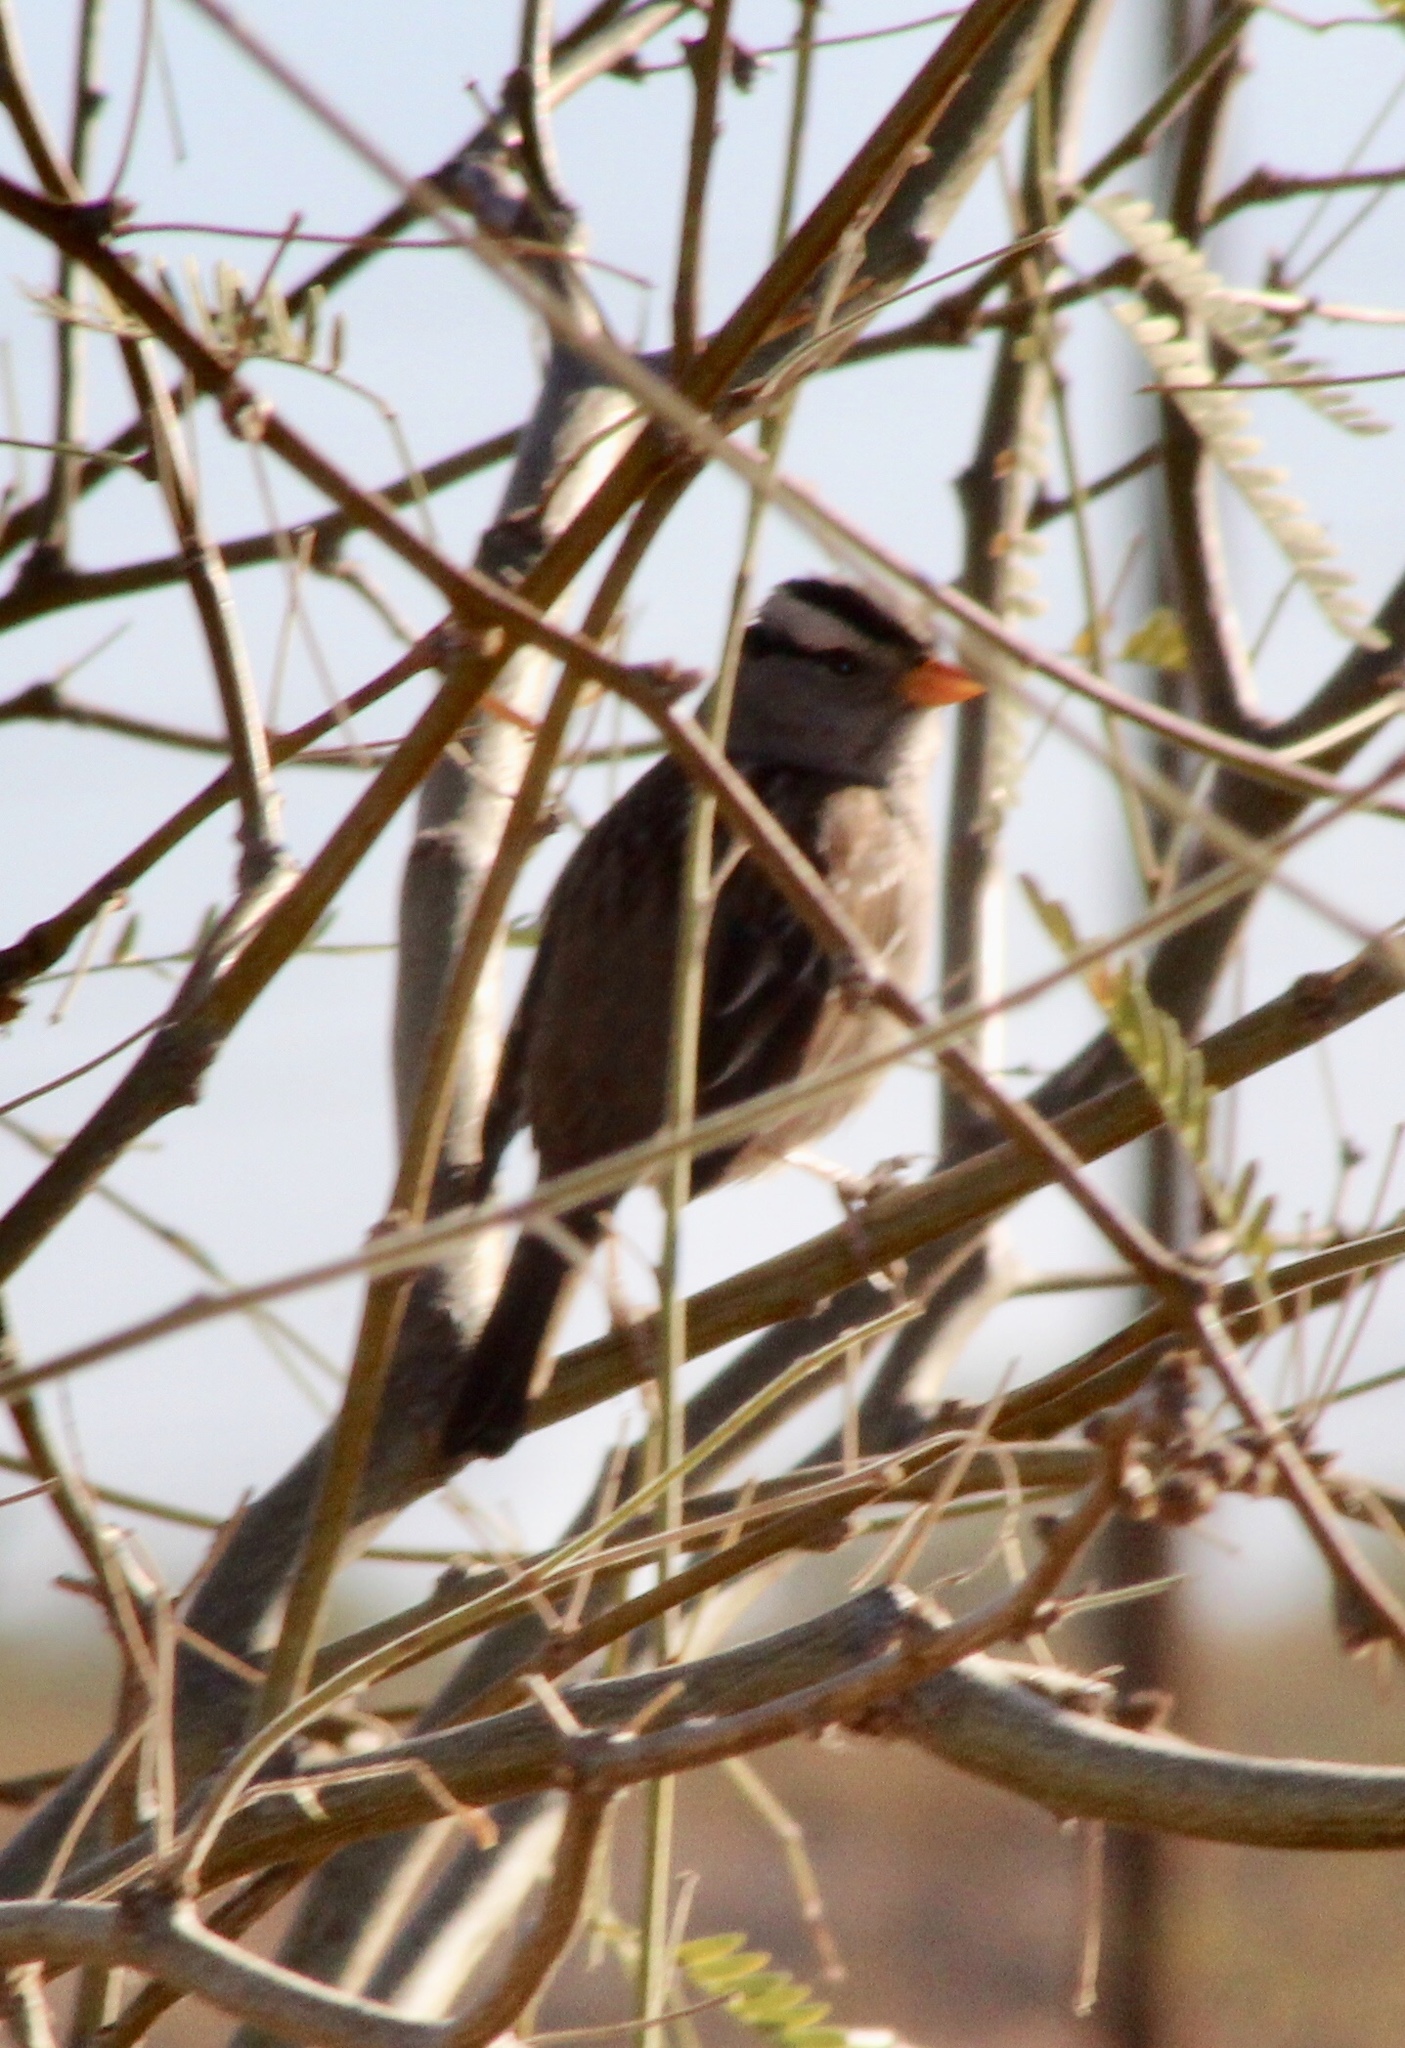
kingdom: Animalia
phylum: Chordata
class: Aves
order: Passeriformes
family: Passerellidae
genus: Zonotrichia
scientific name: Zonotrichia leucophrys
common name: White-crowned sparrow
